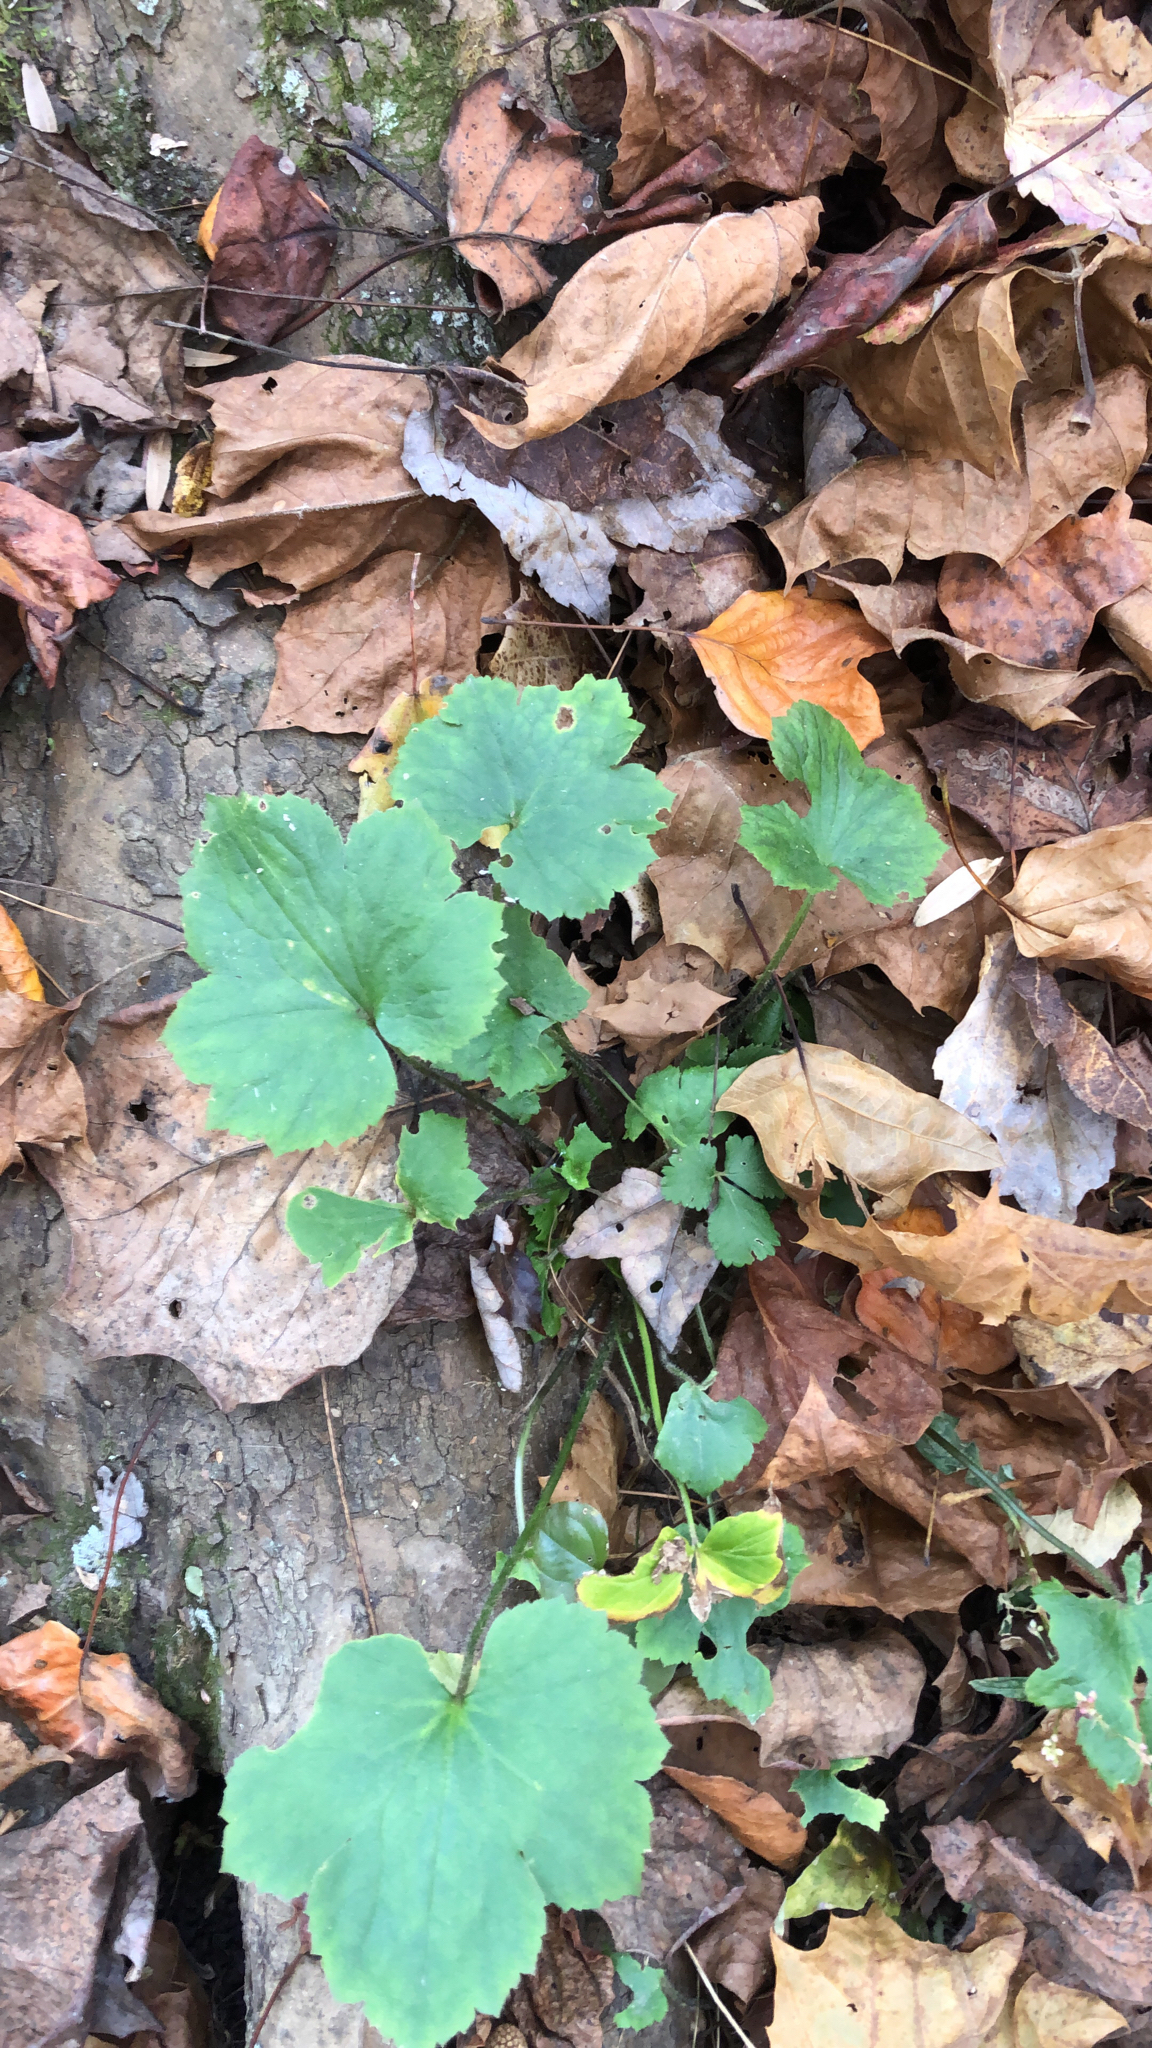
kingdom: Plantae
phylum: Tracheophyta
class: Magnoliopsida
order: Ranunculales
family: Ranunculaceae
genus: Ranunculus
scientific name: Ranunculus recurvatus
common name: Blisterwort
